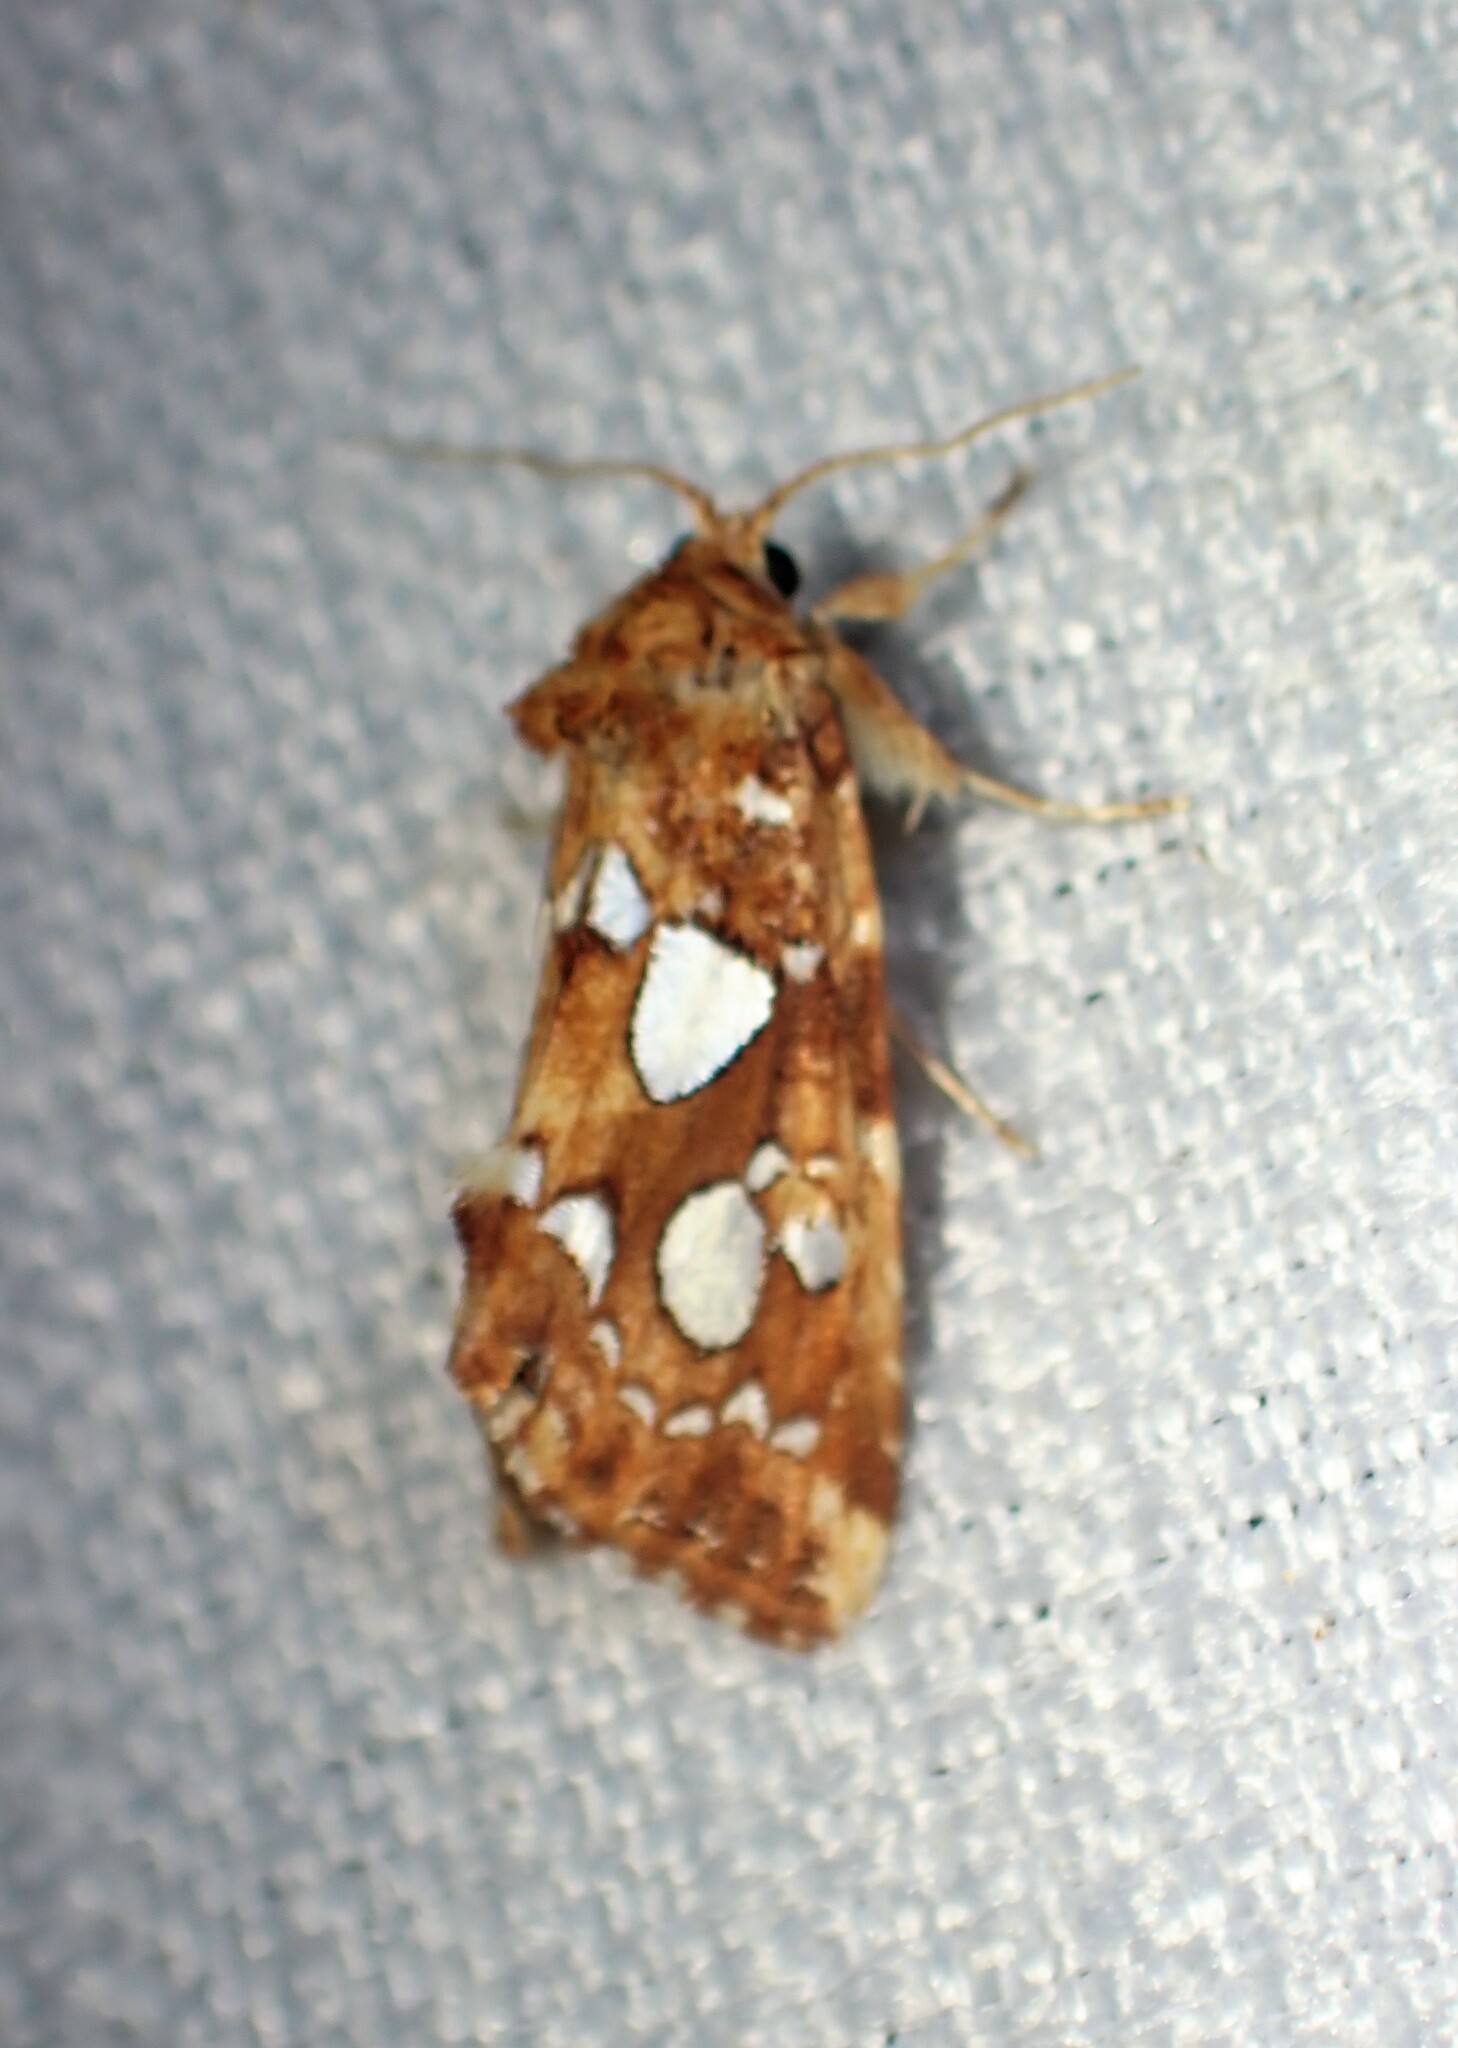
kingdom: Animalia
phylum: Arthropoda
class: Insecta
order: Lepidoptera
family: Noctuidae
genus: Callopistria
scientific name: Callopistria cordata
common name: Silver-spotted fern moth
